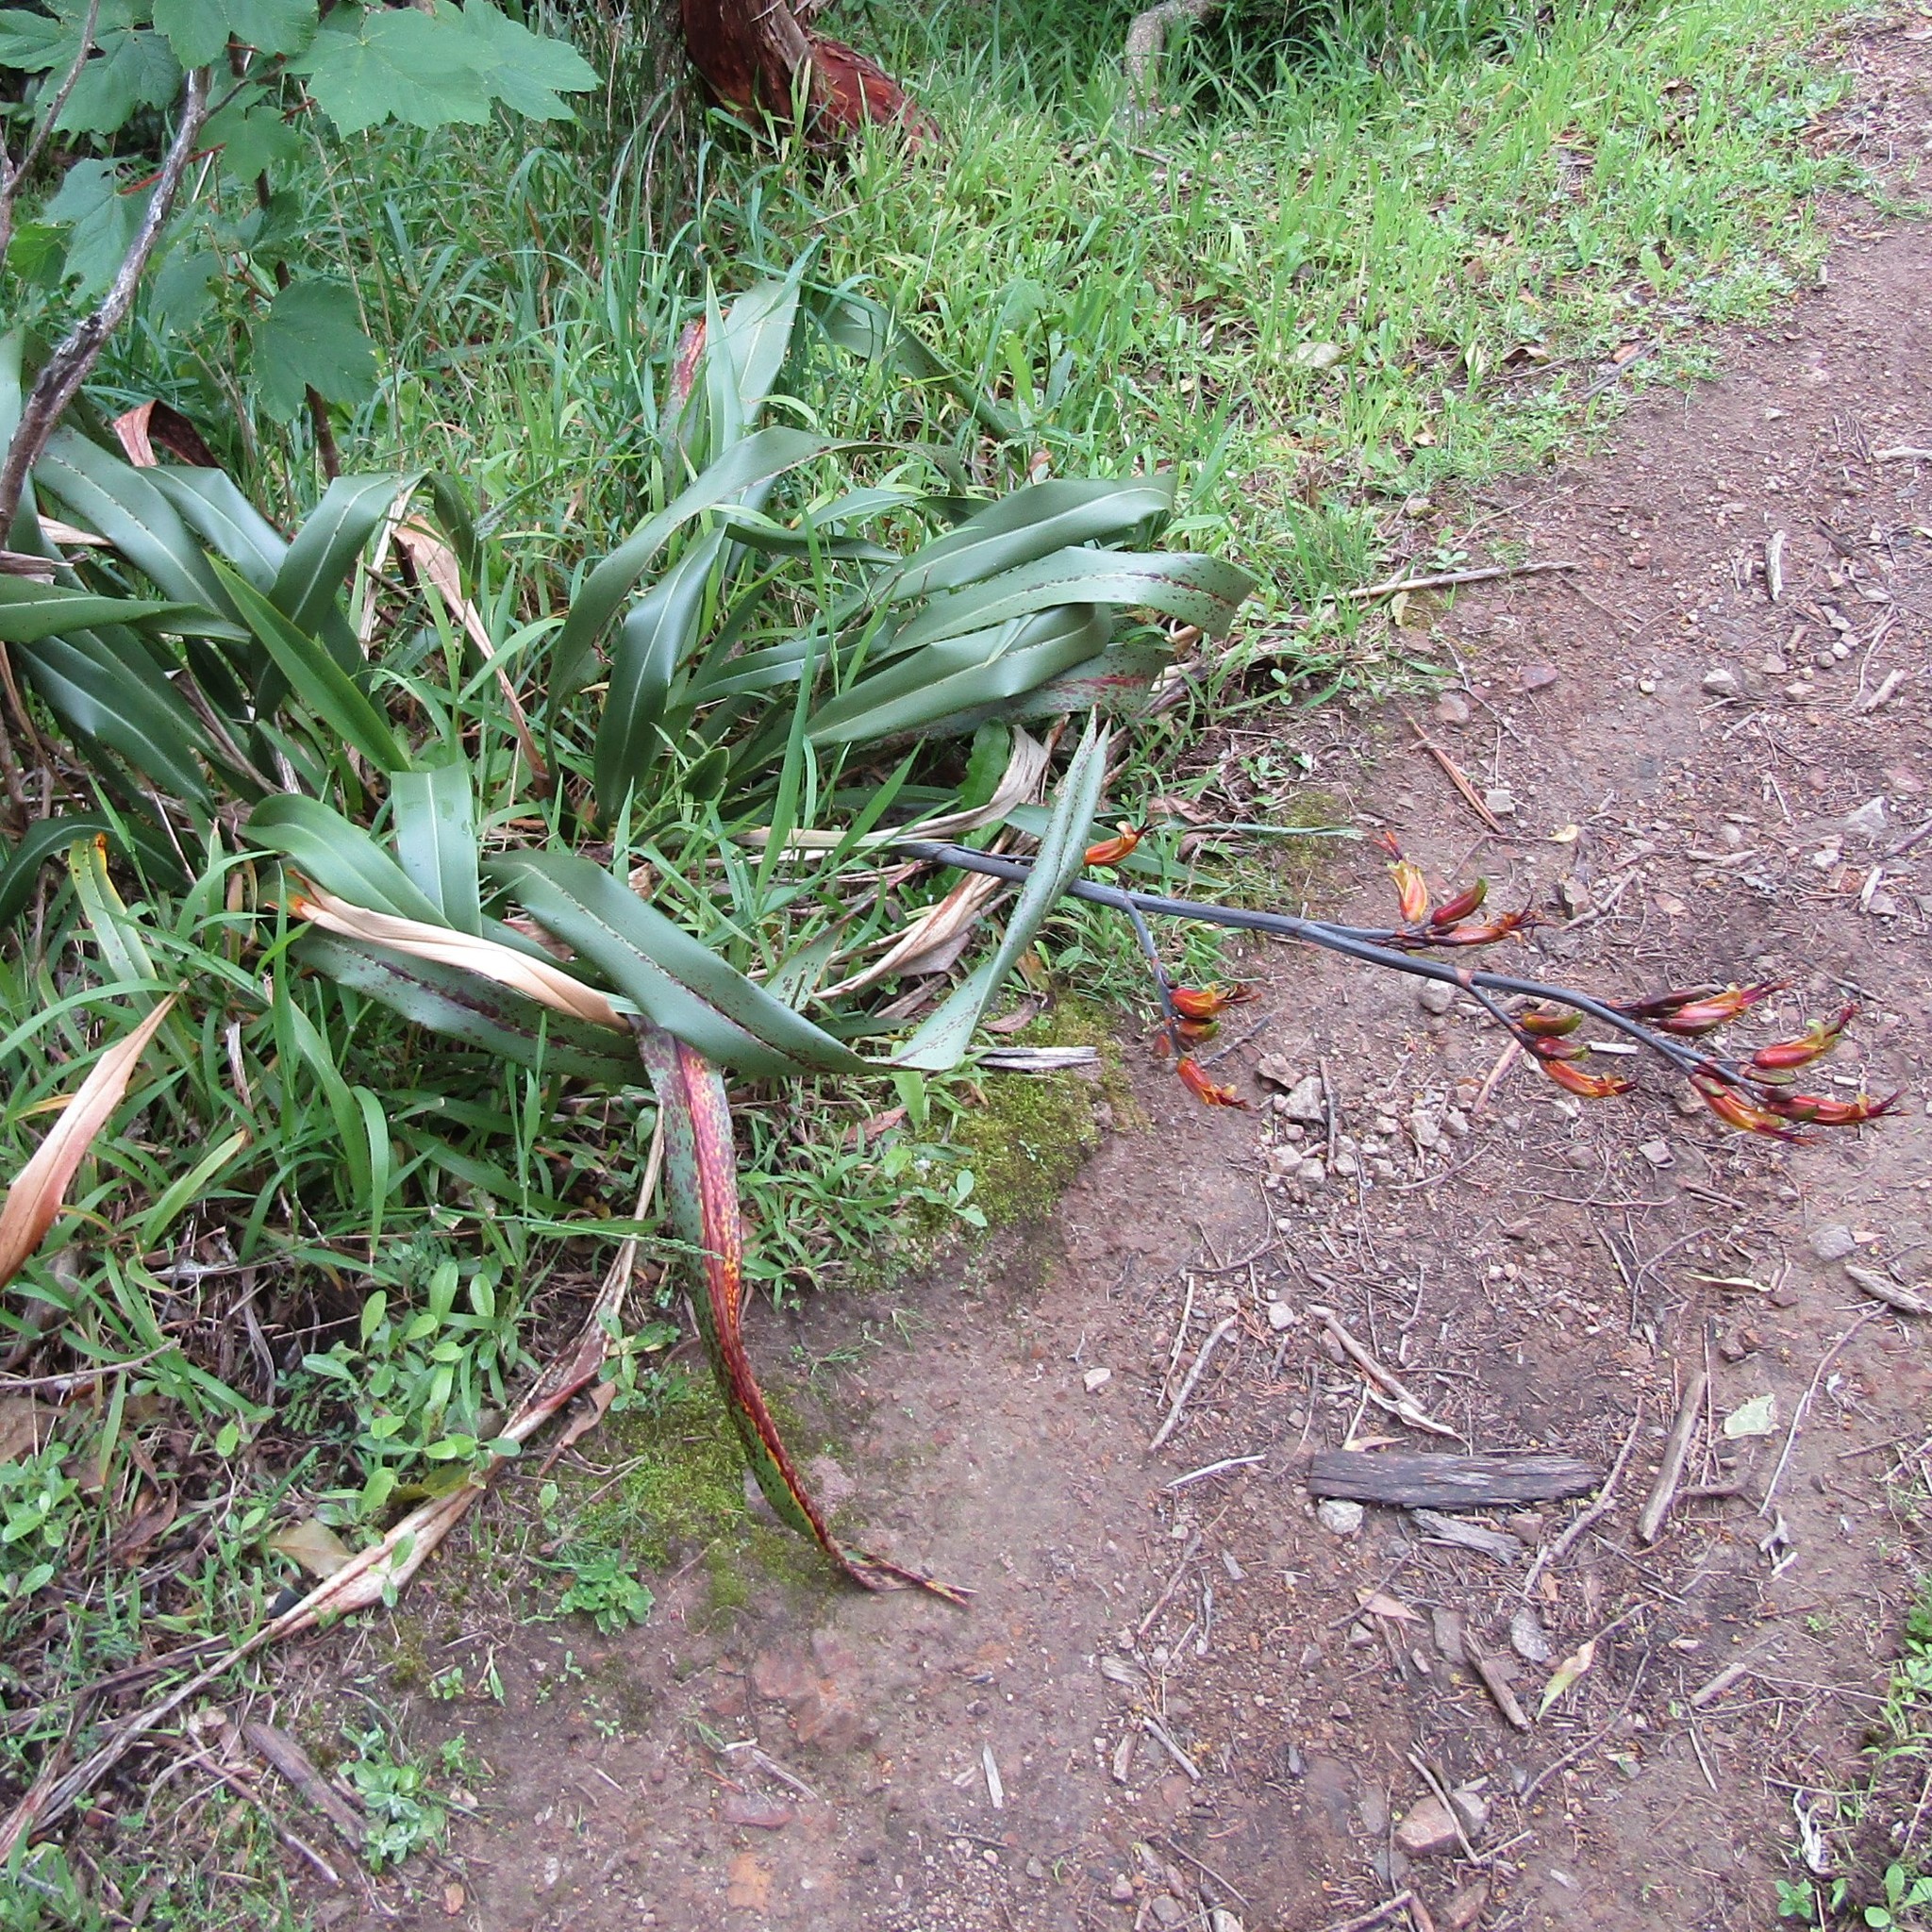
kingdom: Plantae
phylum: Tracheophyta
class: Liliopsida
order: Asparagales
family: Asphodelaceae
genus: Phormium
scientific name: Phormium colensoi
